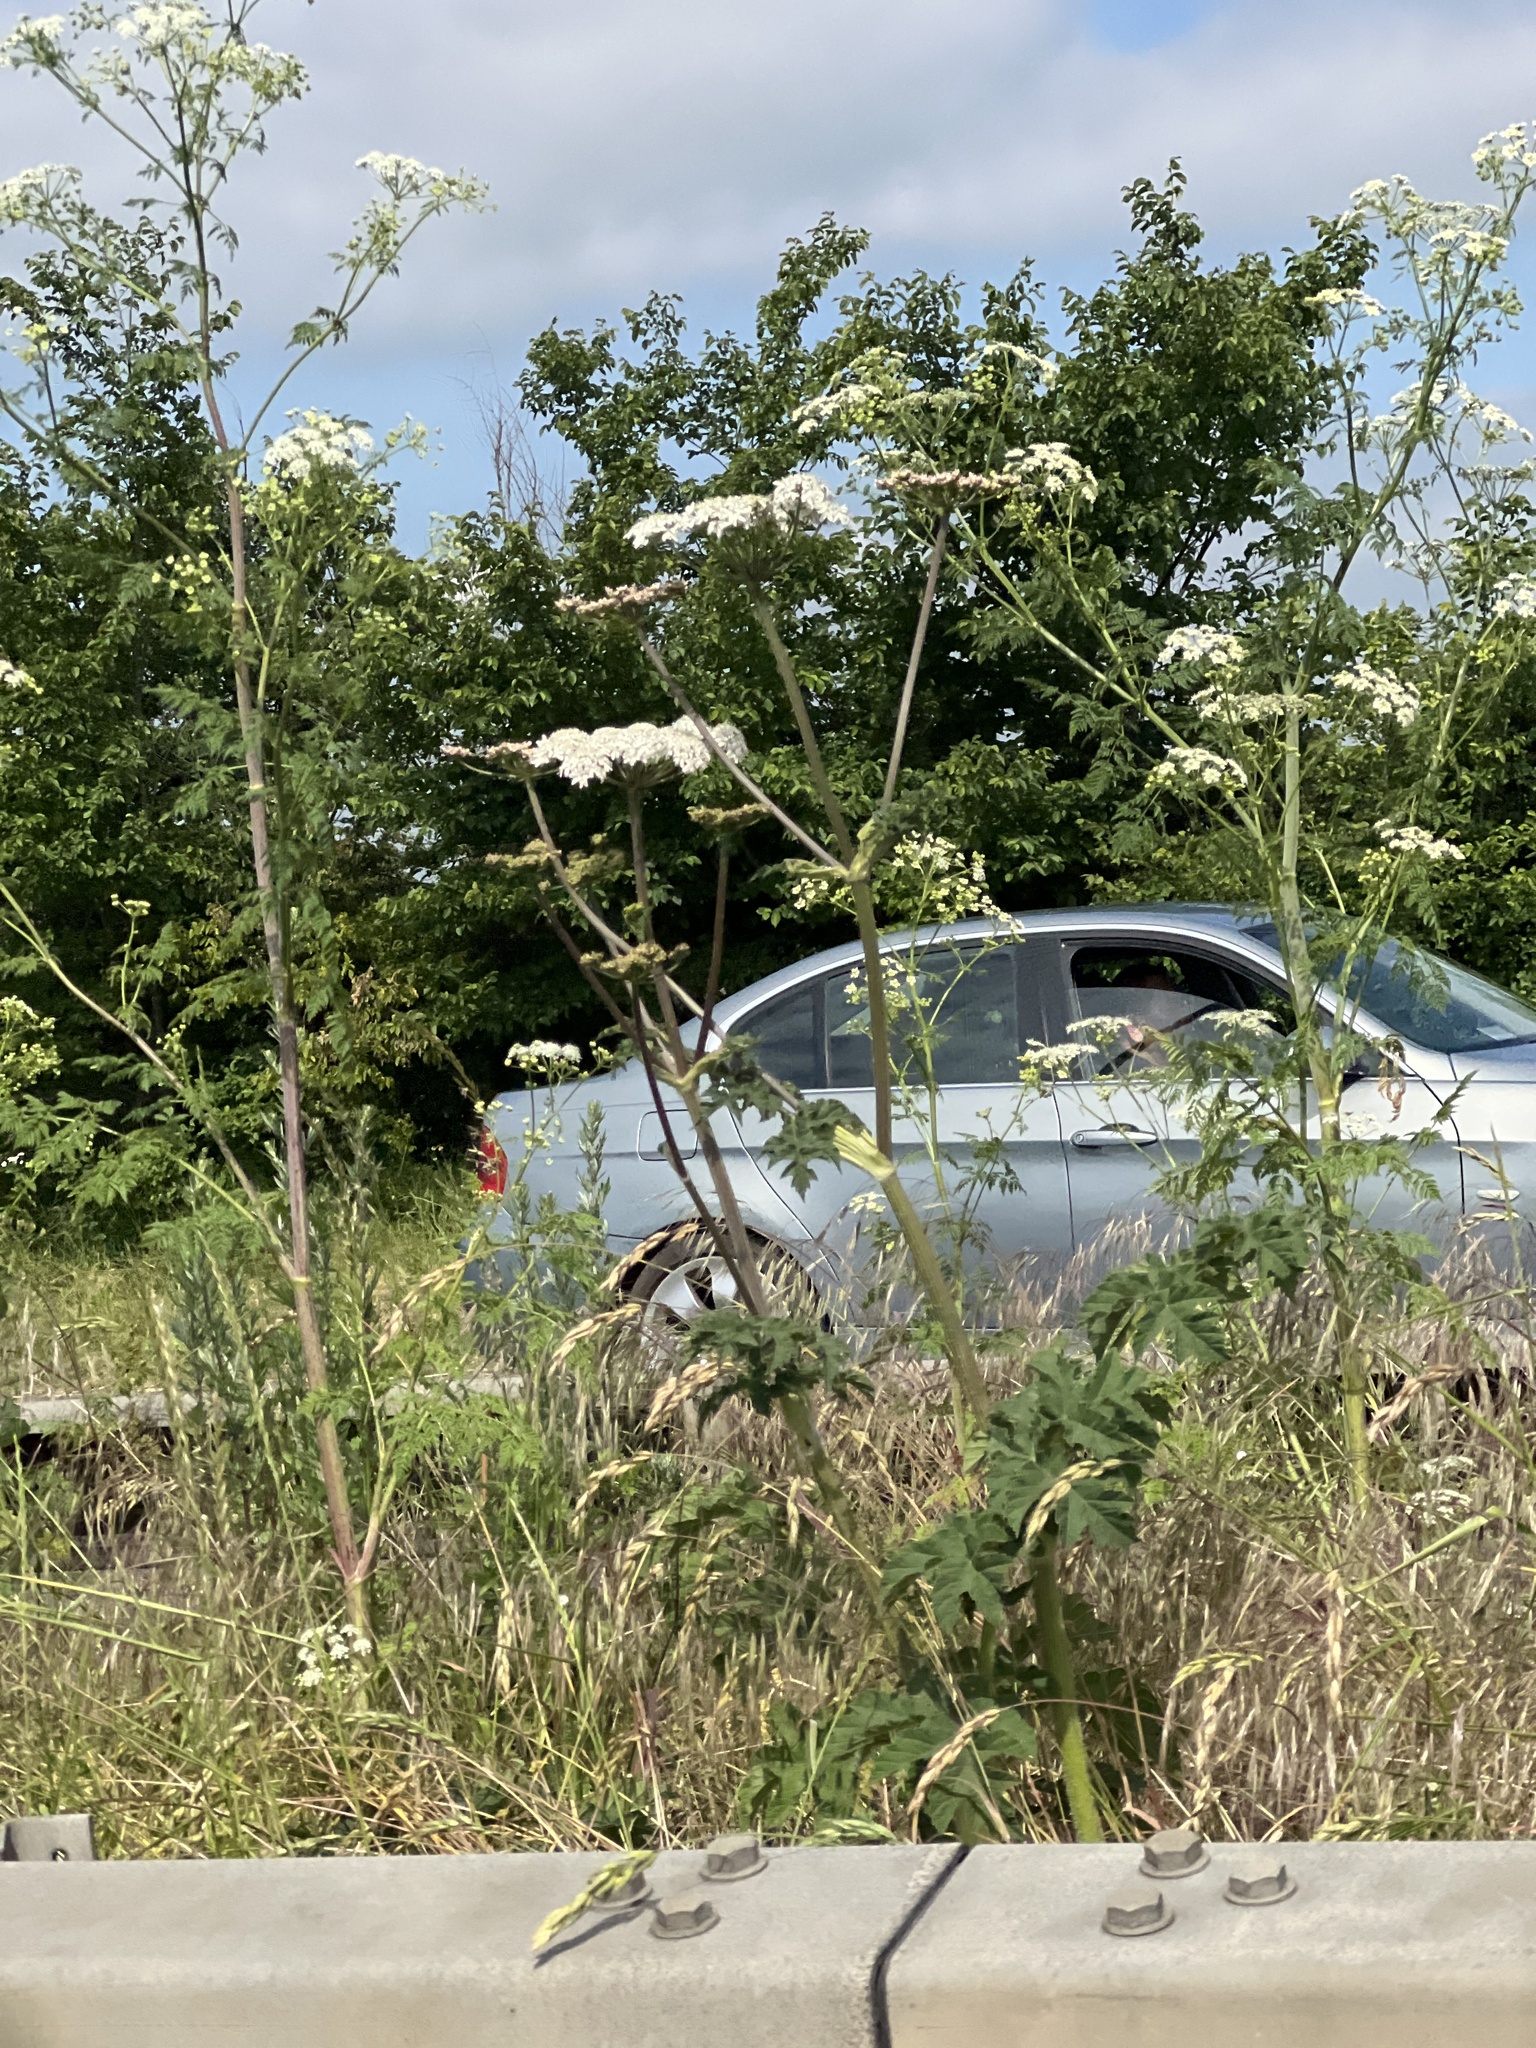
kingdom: Plantae
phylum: Tracheophyta
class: Magnoliopsida
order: Apiales
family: Apiaceae
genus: Heracleum
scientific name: Heracleum sphondylium
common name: Hogweed
